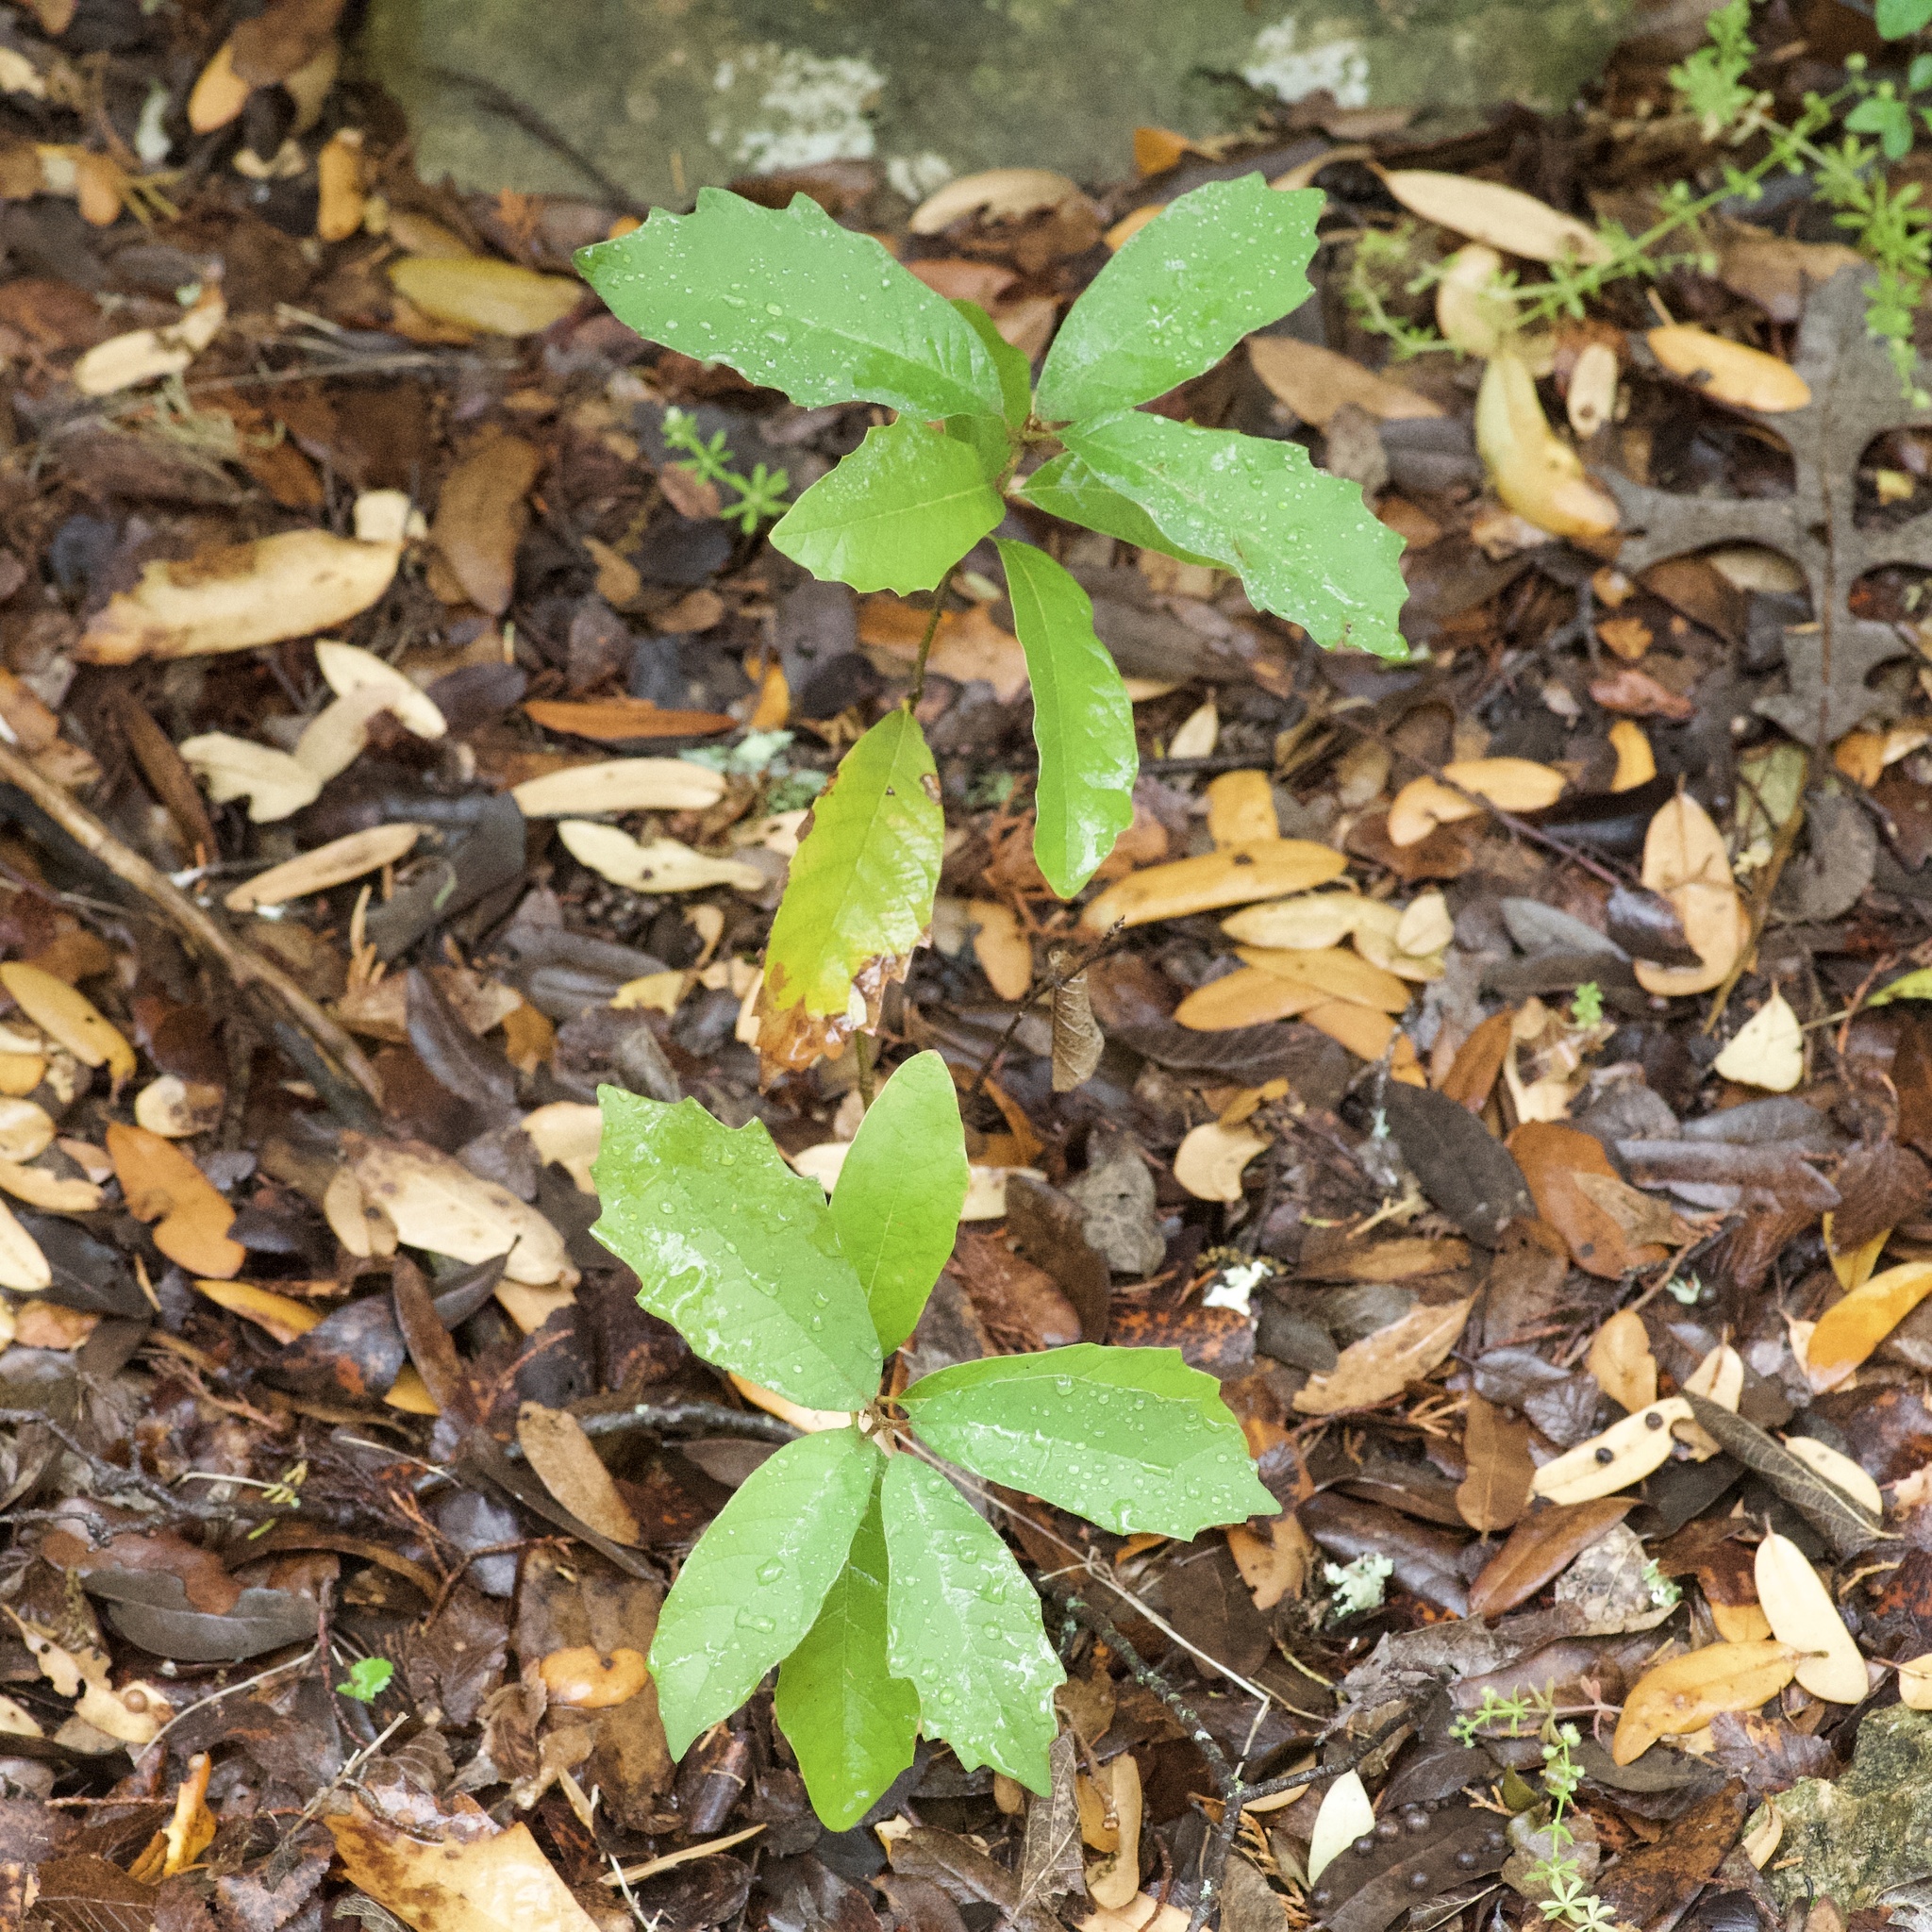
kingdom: Plantae
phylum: Tracheophyta
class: Magnoliopsida
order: Fagales
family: Fagaceae
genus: Quercus
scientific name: Quercus polymorpha
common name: Mexican white oak
